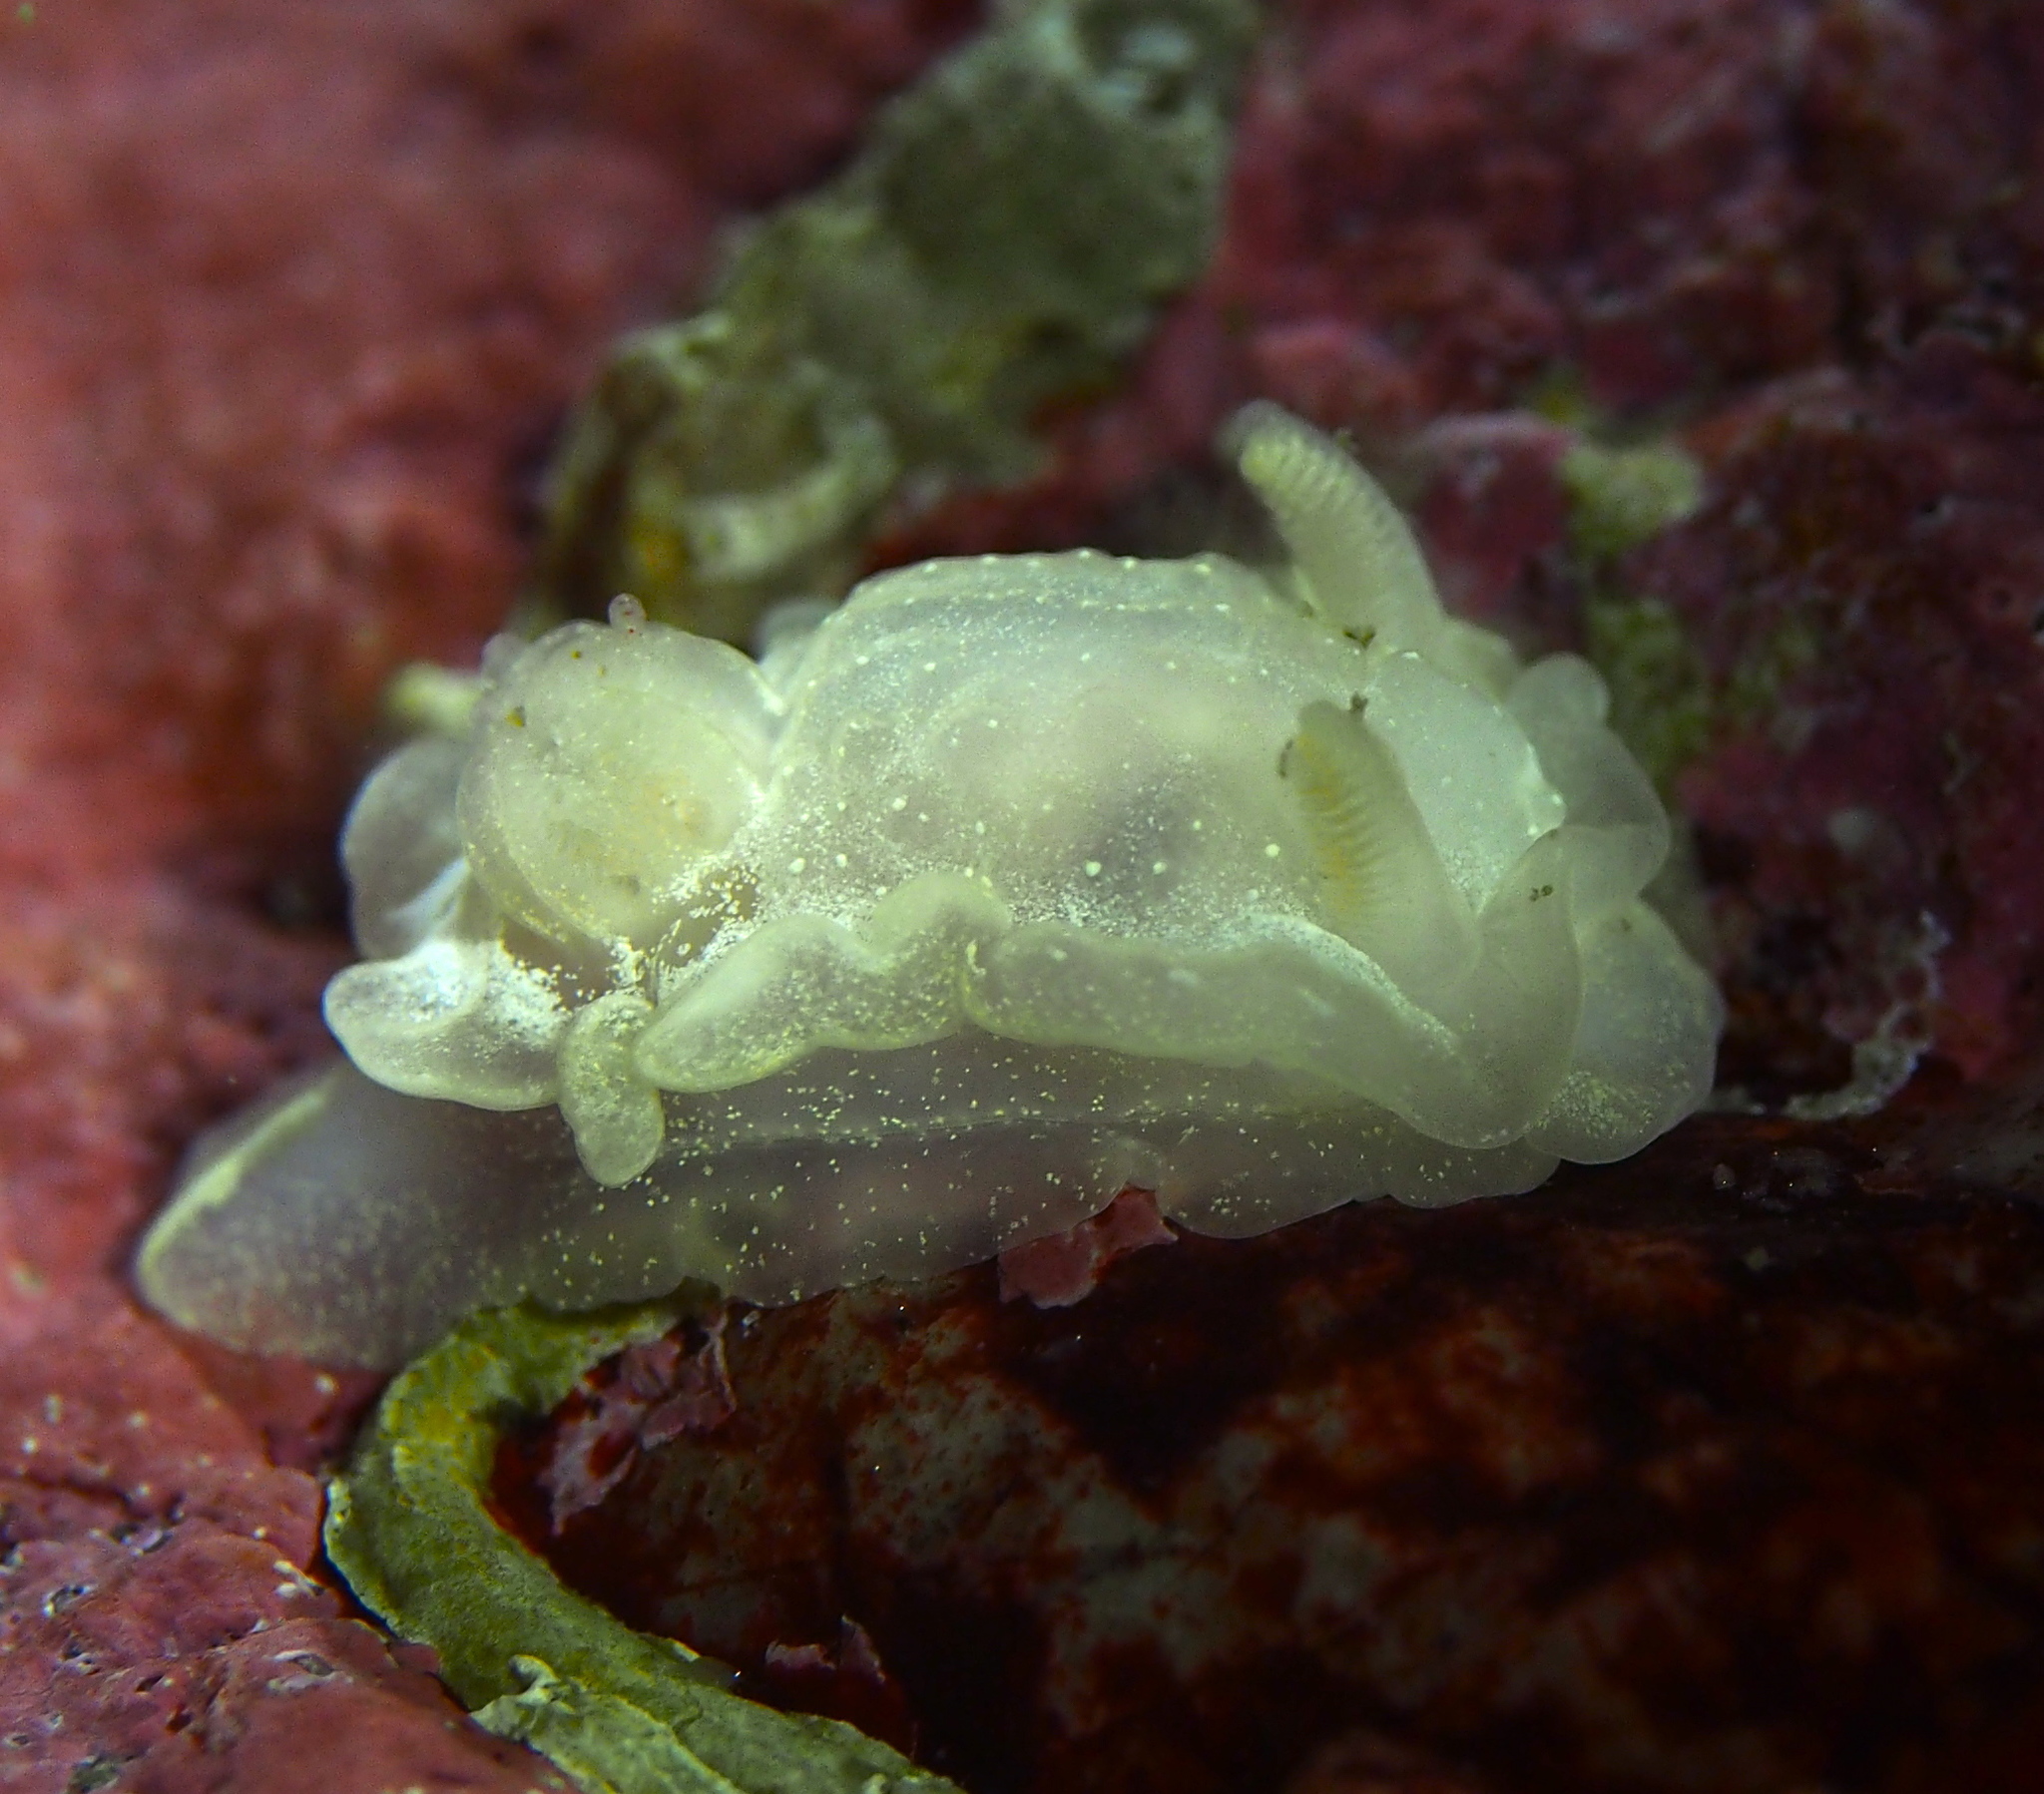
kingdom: Animalia
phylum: Mollusca
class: Gastropoda
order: Nudibranchia
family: Goniodorididae
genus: Okenia
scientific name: Okenia
